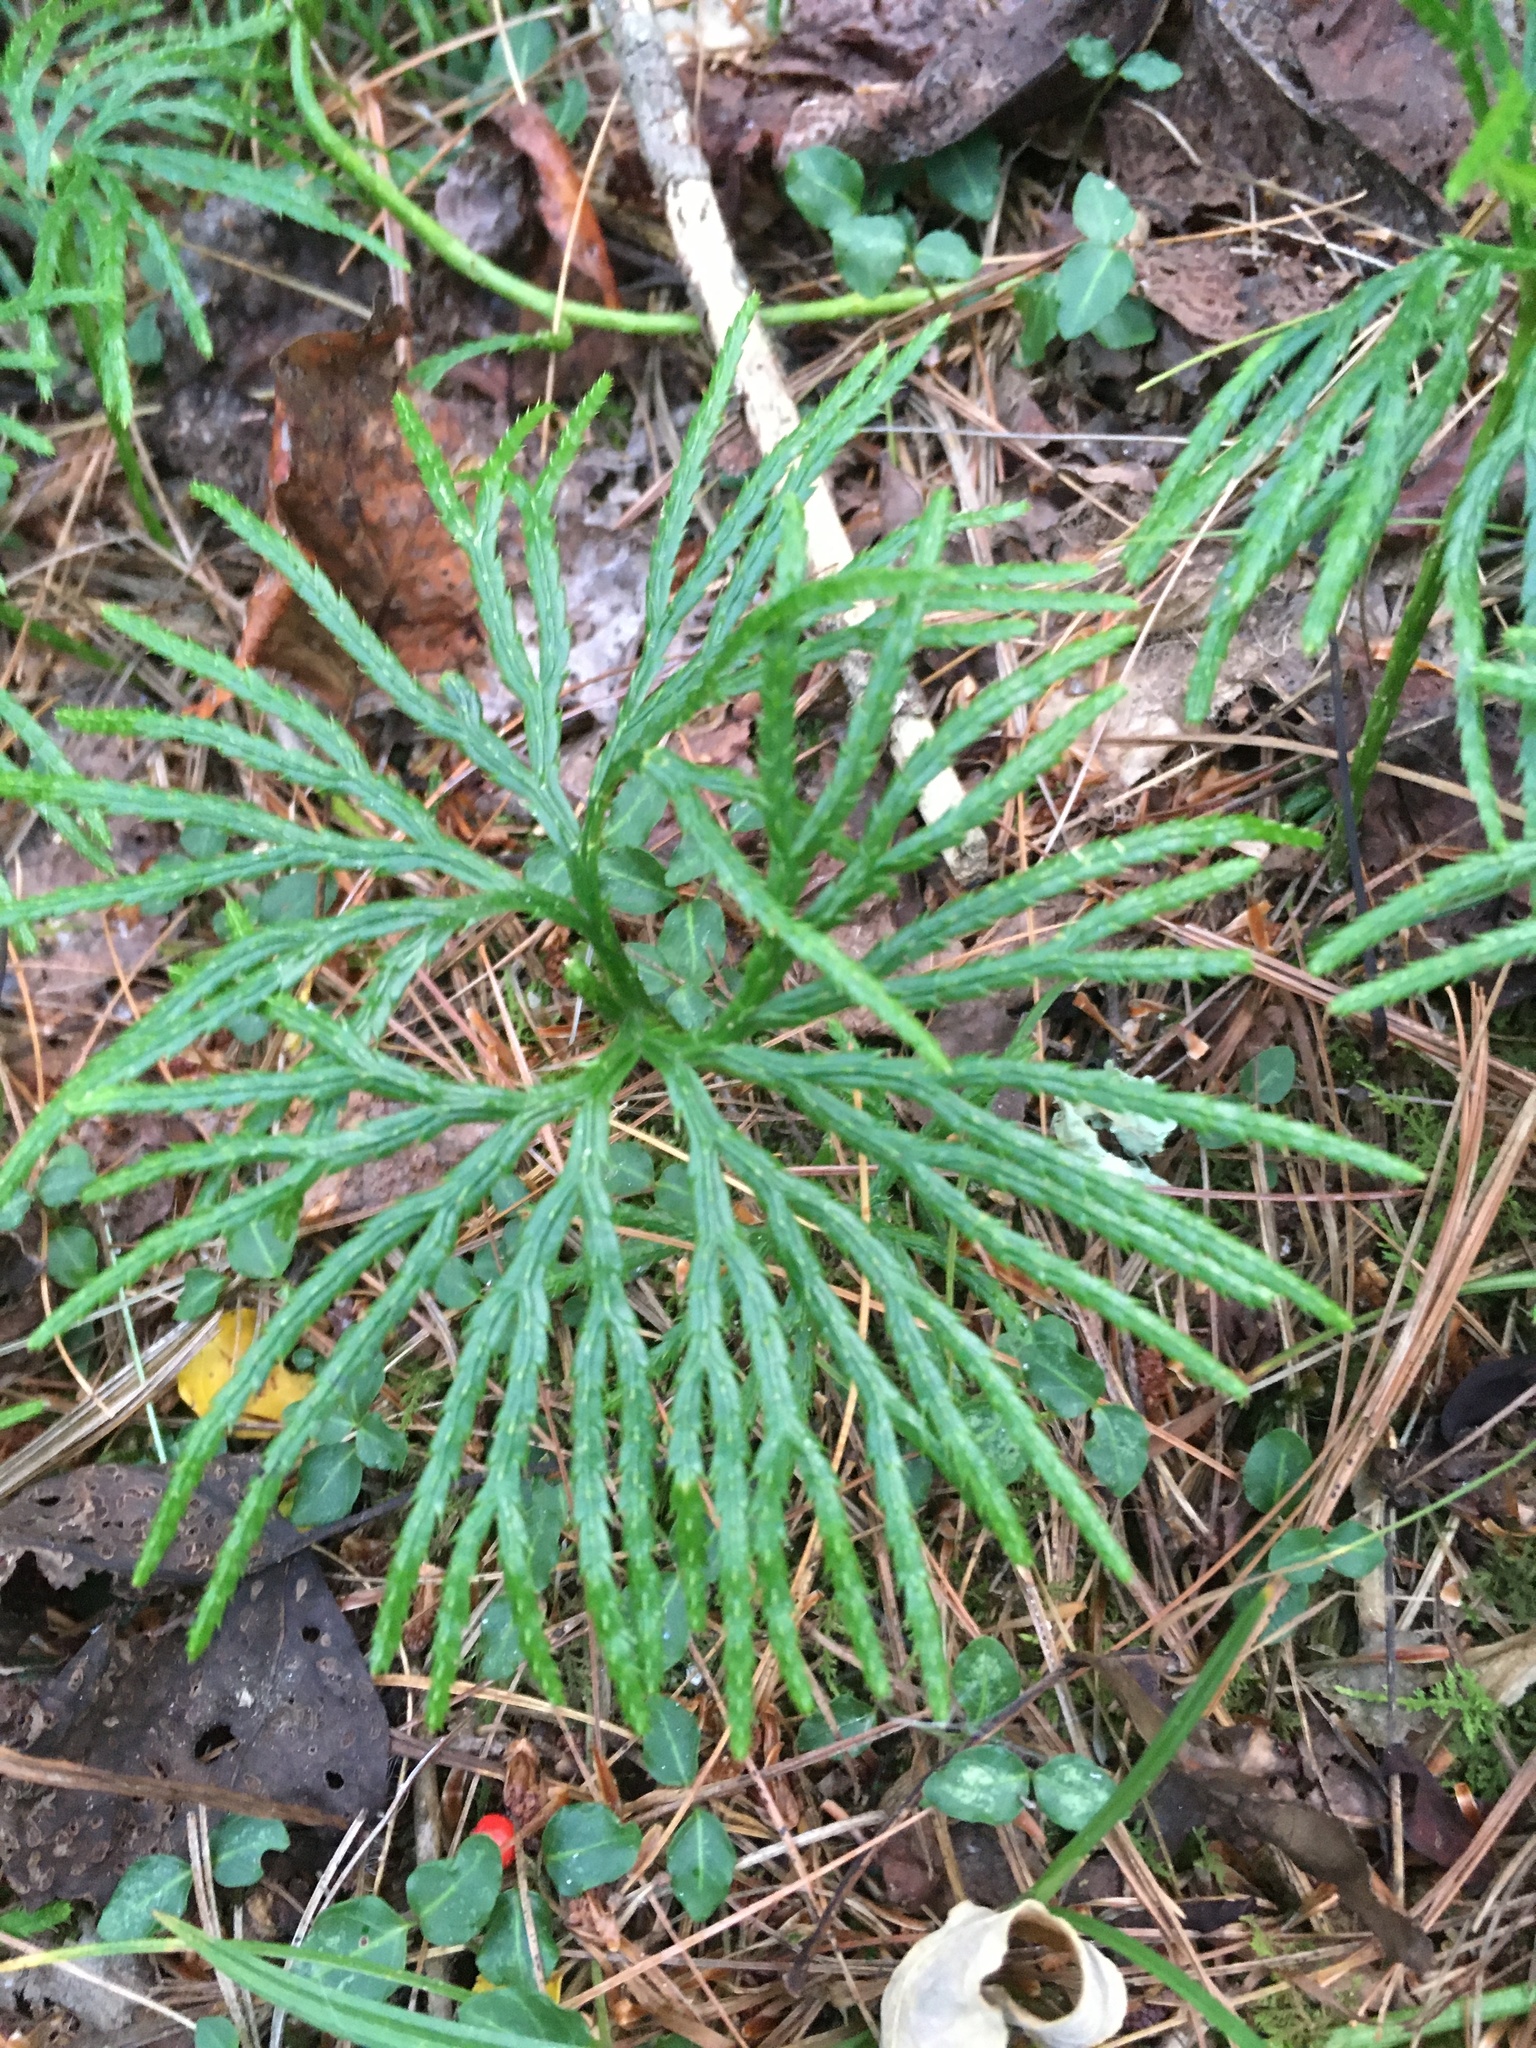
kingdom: Plantae
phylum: Tracheophyta
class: Lycopodiopsida
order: Lycopodiales
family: Lycopodiaceae
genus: Diphasiastrum
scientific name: Diphasiastrum digitatum
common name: Southern running-pine
